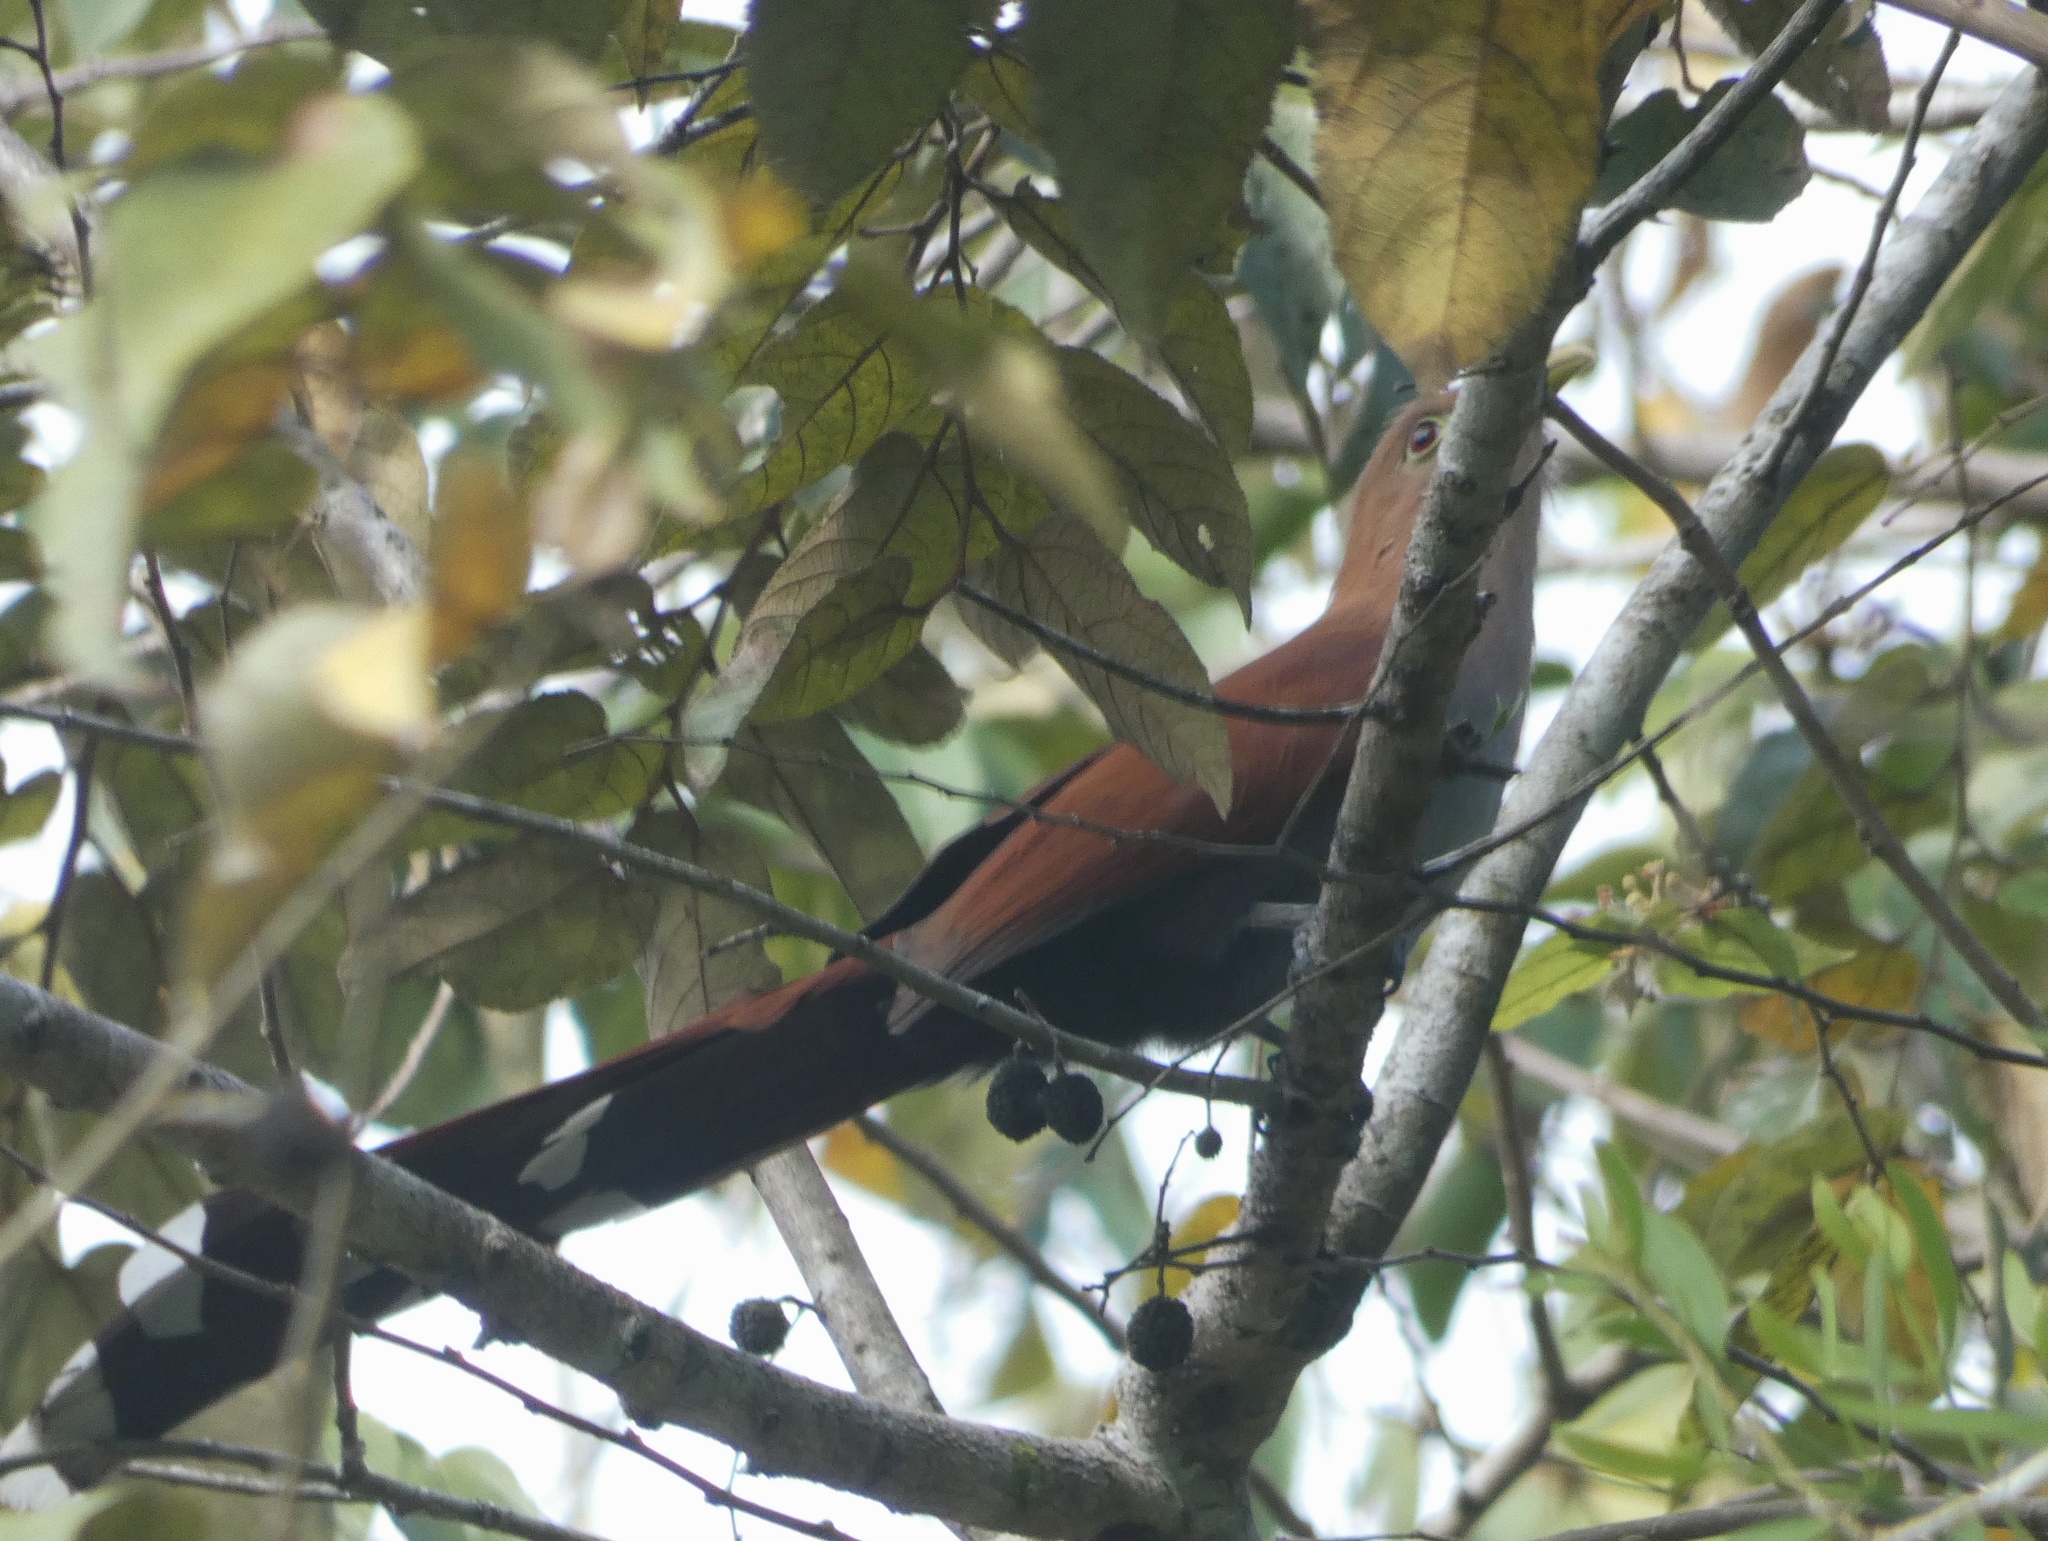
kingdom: Animalia
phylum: Chordata
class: Aves
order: Cuculiformes
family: Cuculidae
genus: Piaya
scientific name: Piaya cayana
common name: Squirrel cuckoo
